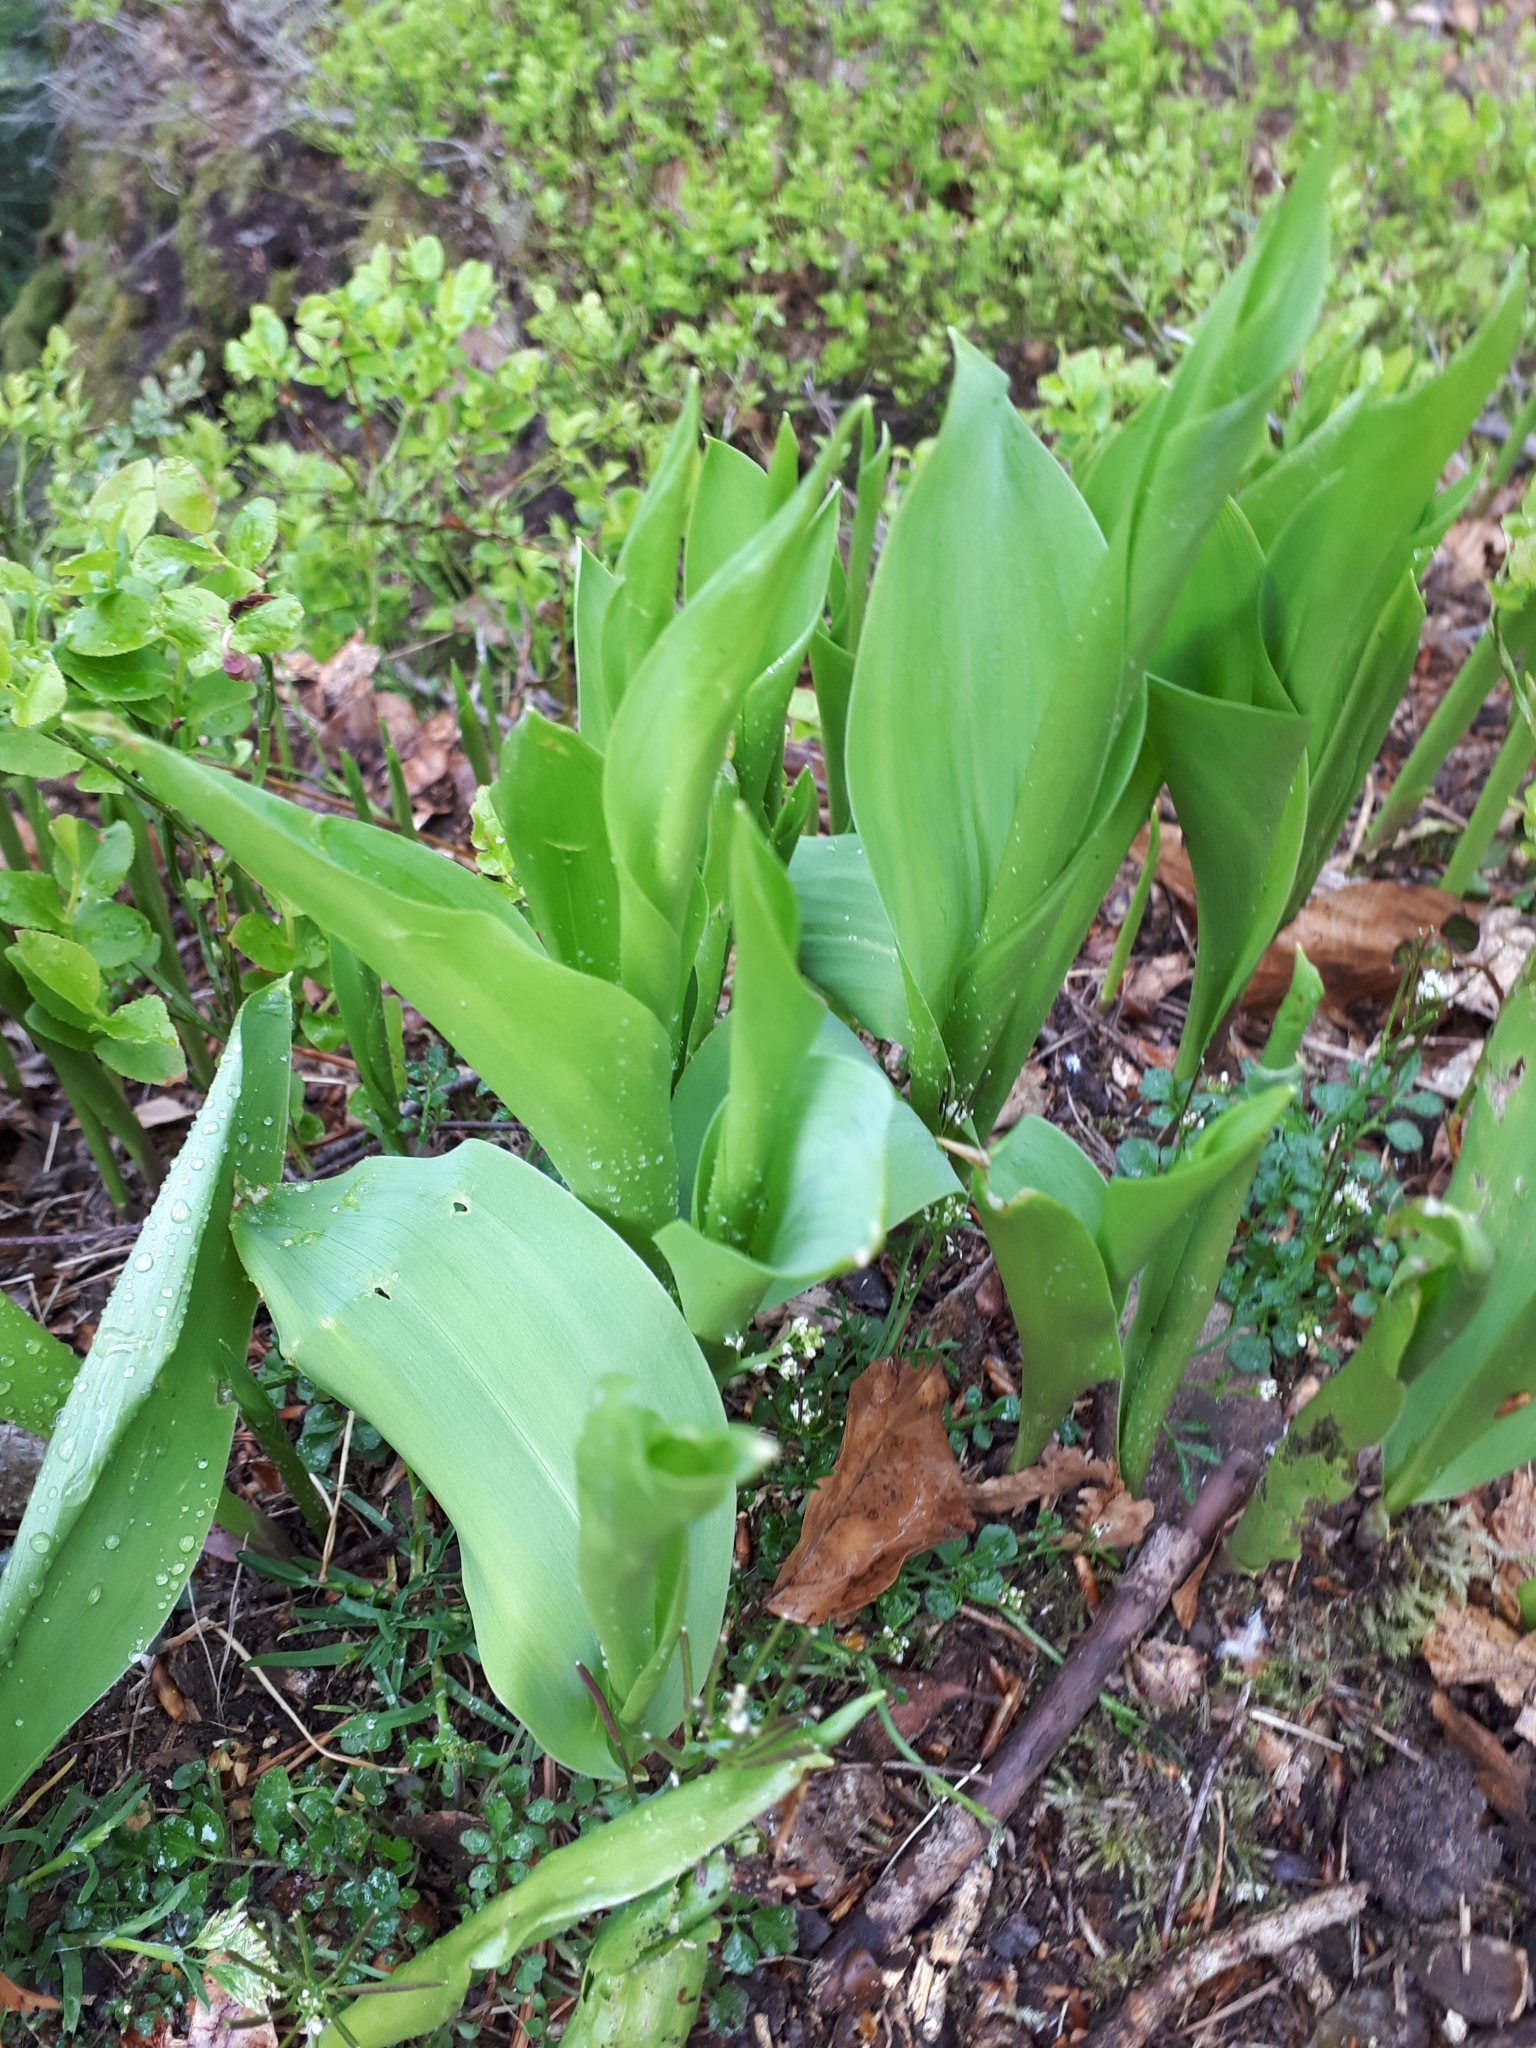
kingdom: Plantae
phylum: Tracheophyta
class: Liliopsida
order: Asparagales
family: Asparagaceae
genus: Convallaria
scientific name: Convallaria majalis
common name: Lily-of-the-valley
